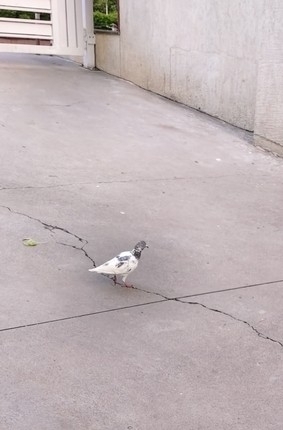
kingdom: Animalia
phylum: Chordata
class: Aves
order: Columbiformes
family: Columbidae
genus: Columba
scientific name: Columba livia
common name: Rock pigeon
